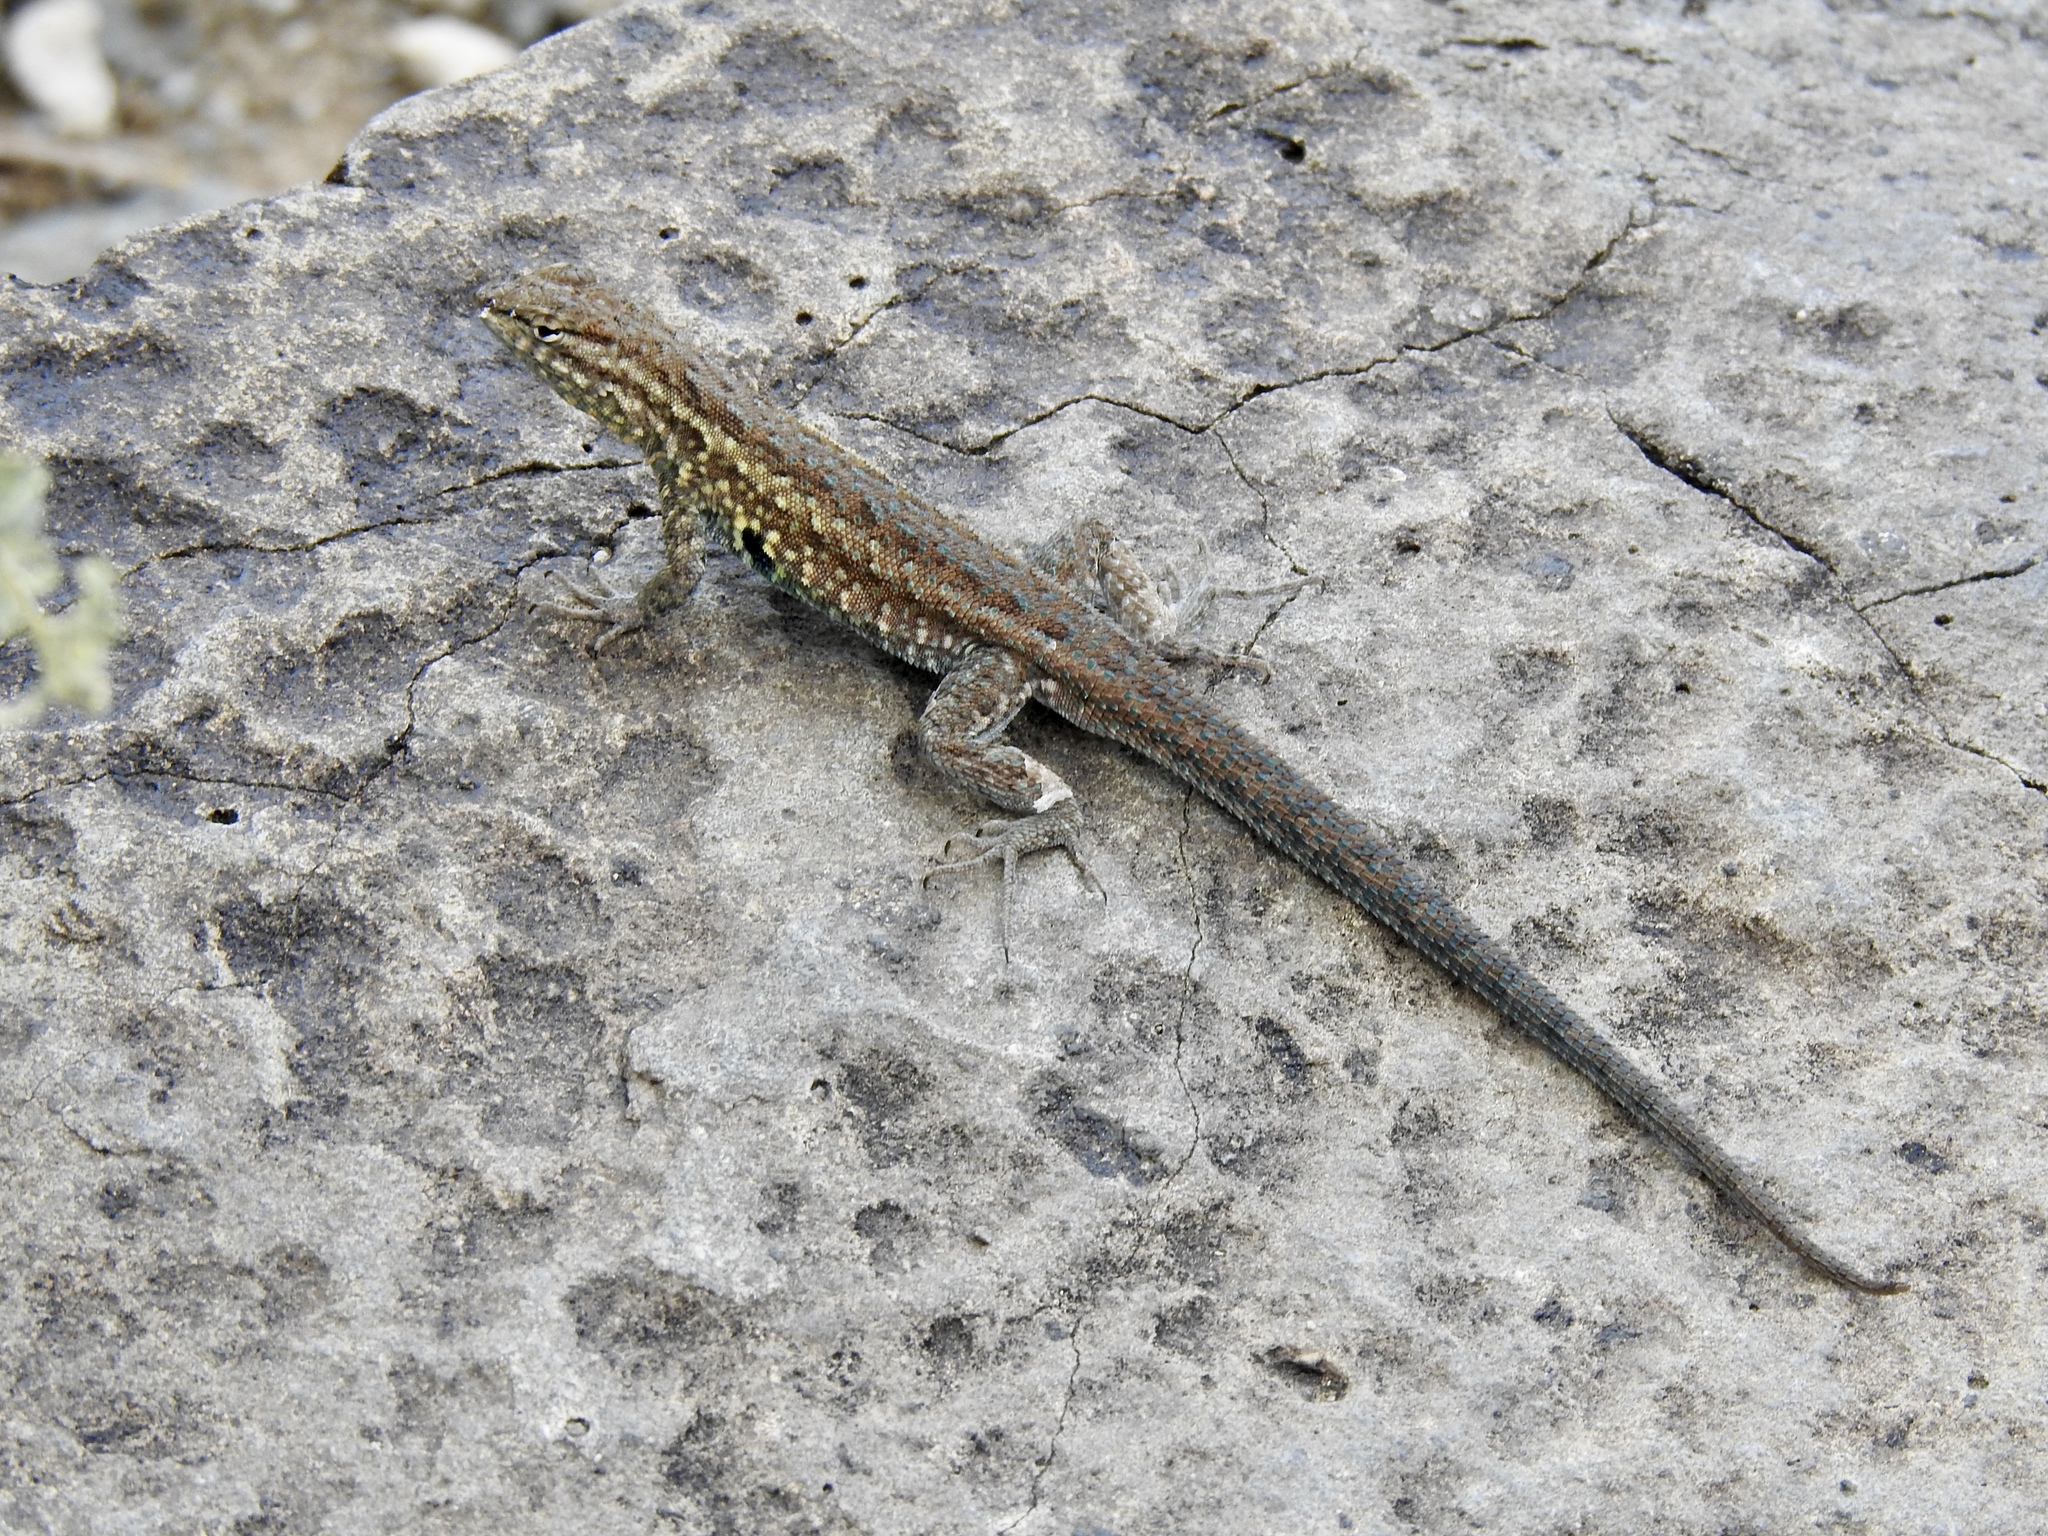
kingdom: Animalia
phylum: Chordata
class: Squamata
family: Phrynosomatidae
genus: Uta
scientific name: Uta stansburiana
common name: Side-blotched lizard
